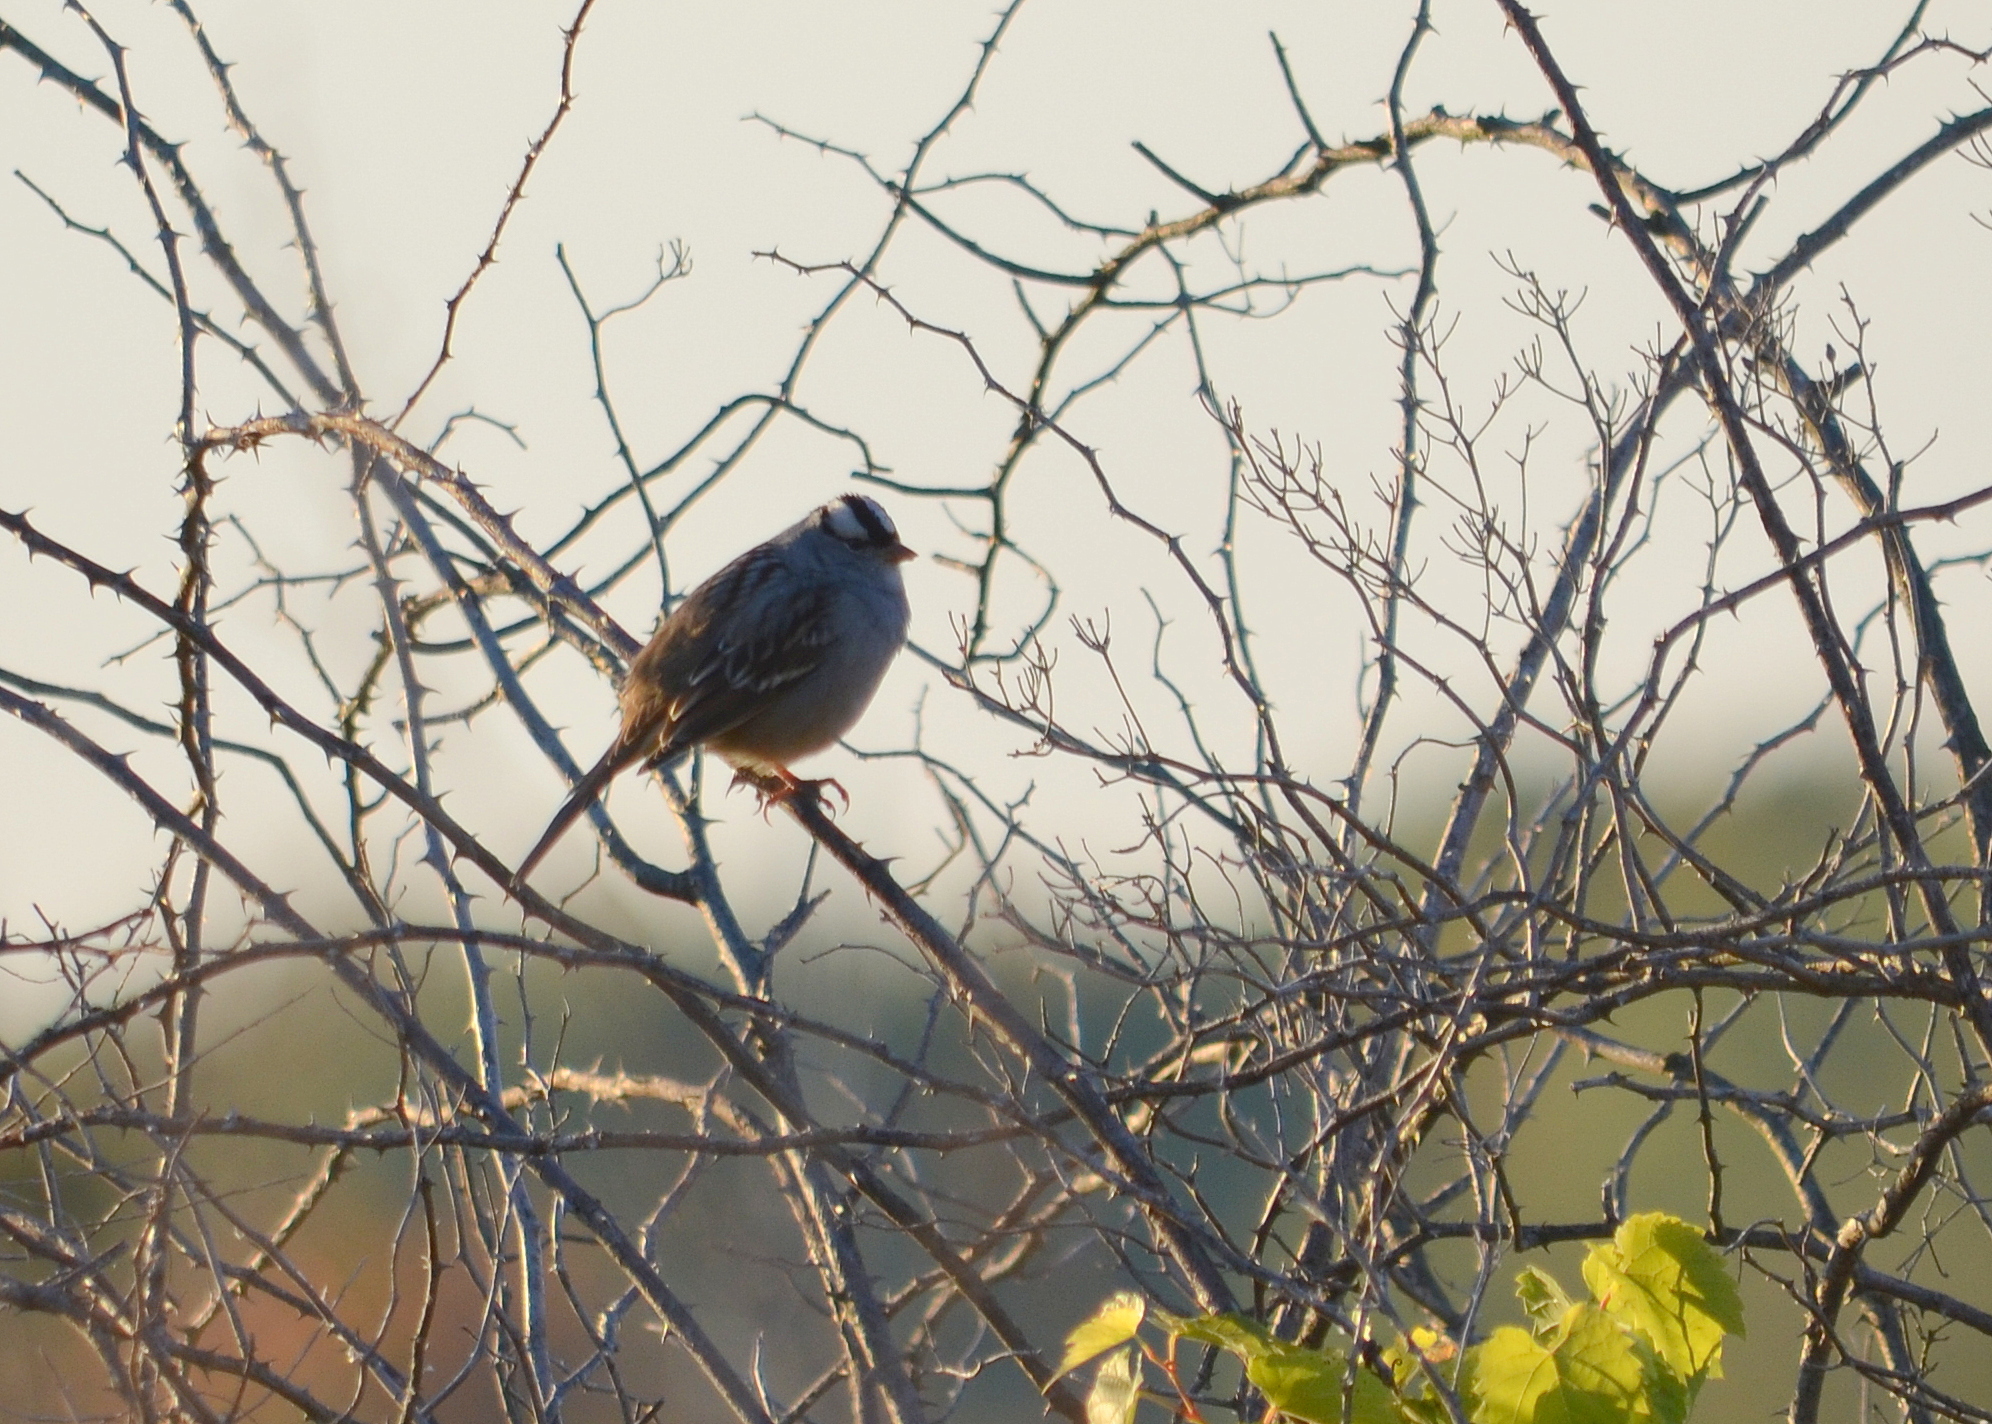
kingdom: Animalia
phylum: Chordata
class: Aves
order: Passeriformes
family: Passerellidae
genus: Zonotrichia
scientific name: Zonotrichia leucophrys
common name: White-crowned sparrow
